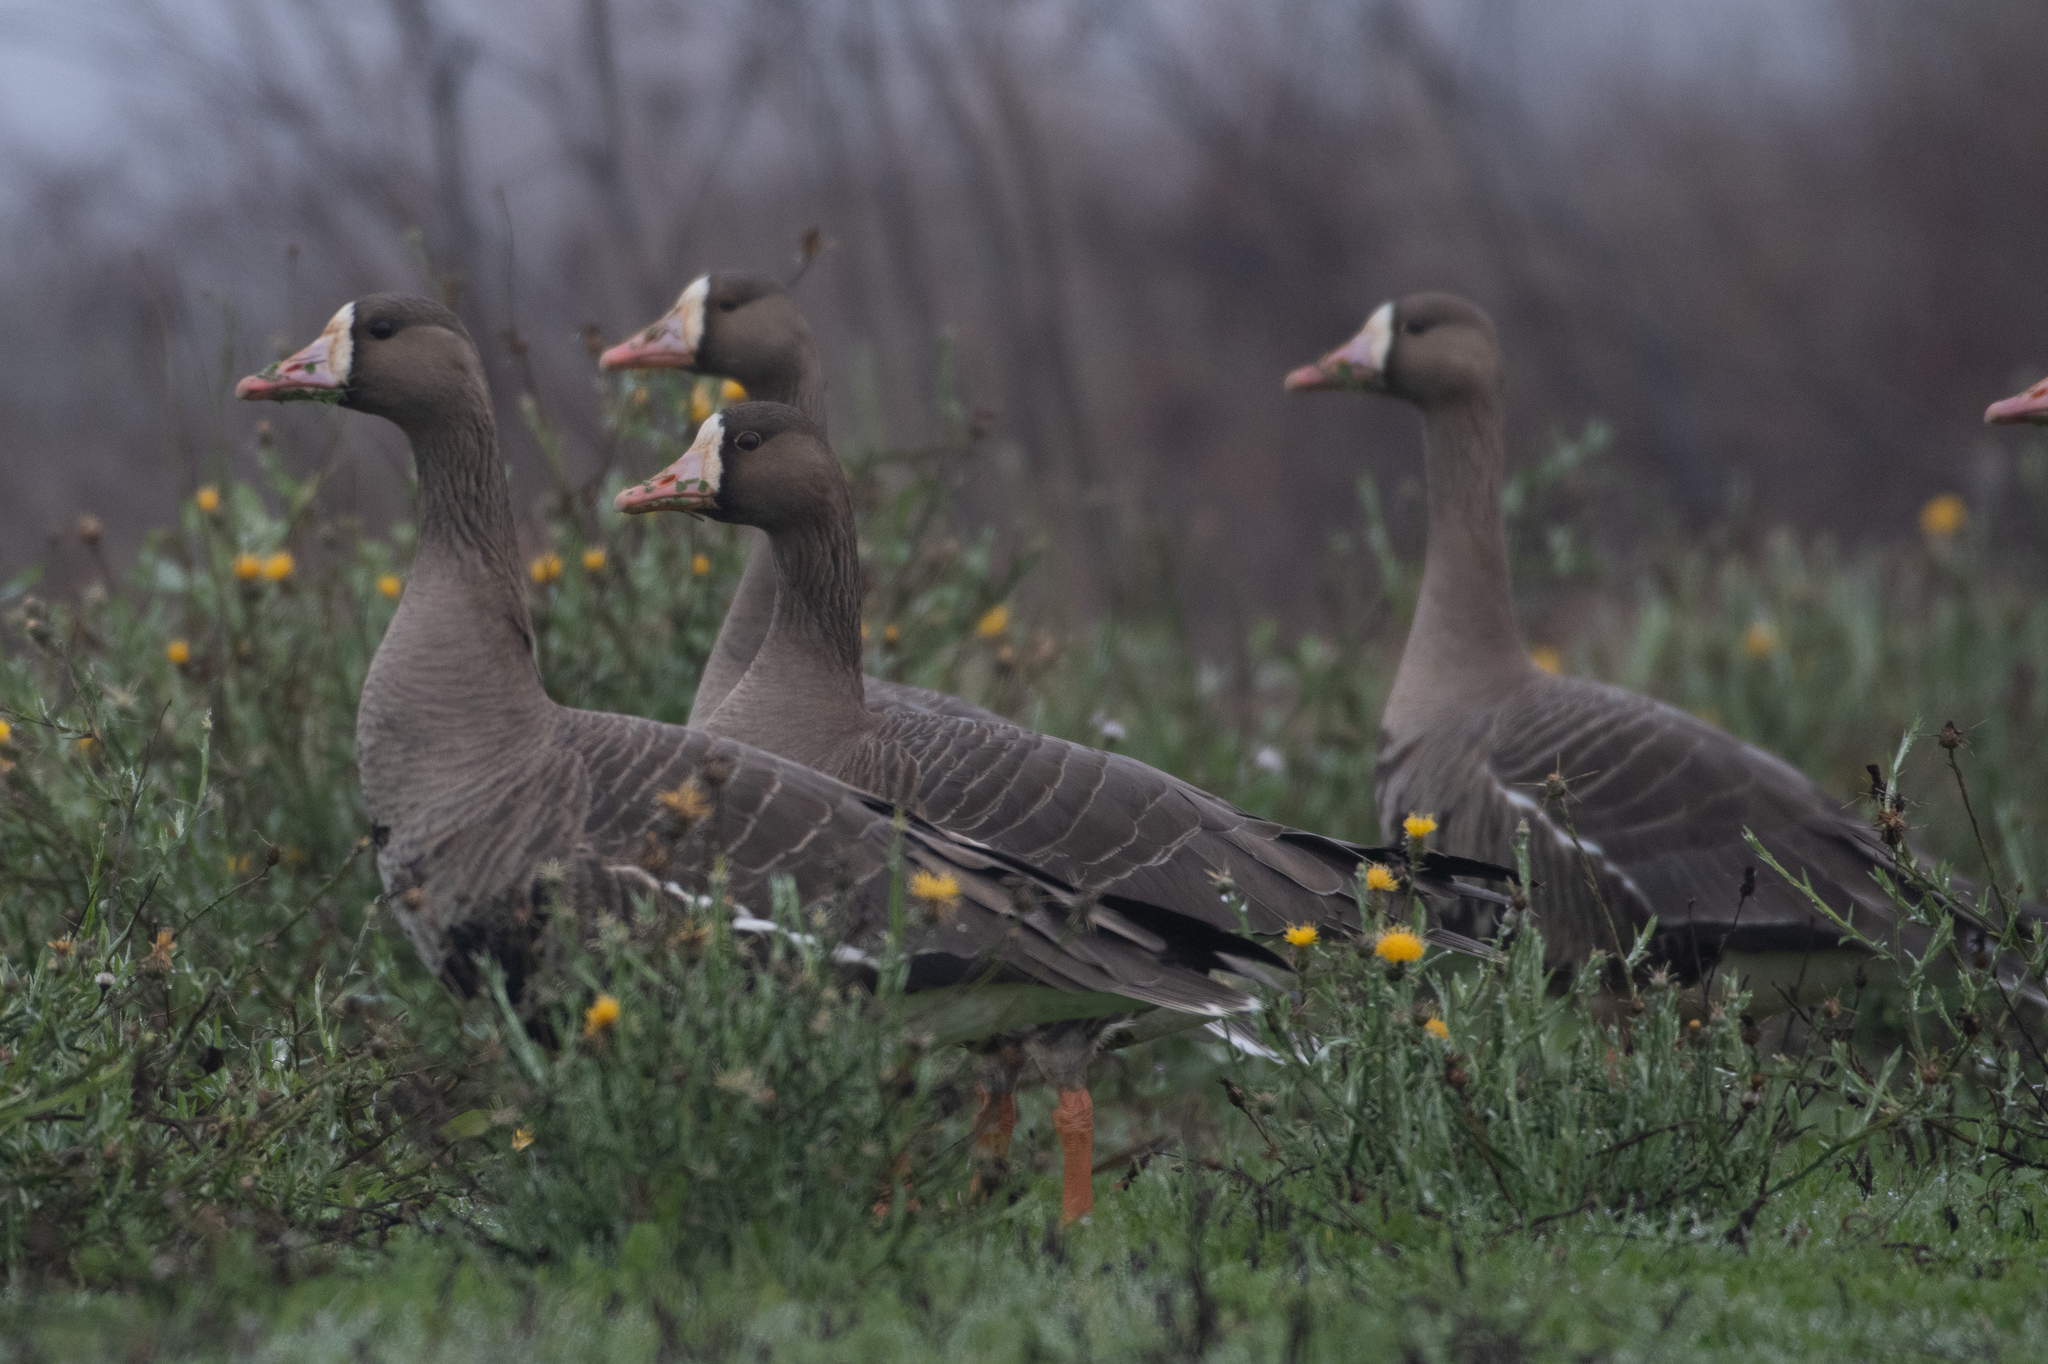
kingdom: Animalia
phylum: Chordata
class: Aves
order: Anseriformes
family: Anatidae
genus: Anser
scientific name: Anser albifrons
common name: Greater white-fronted goose
